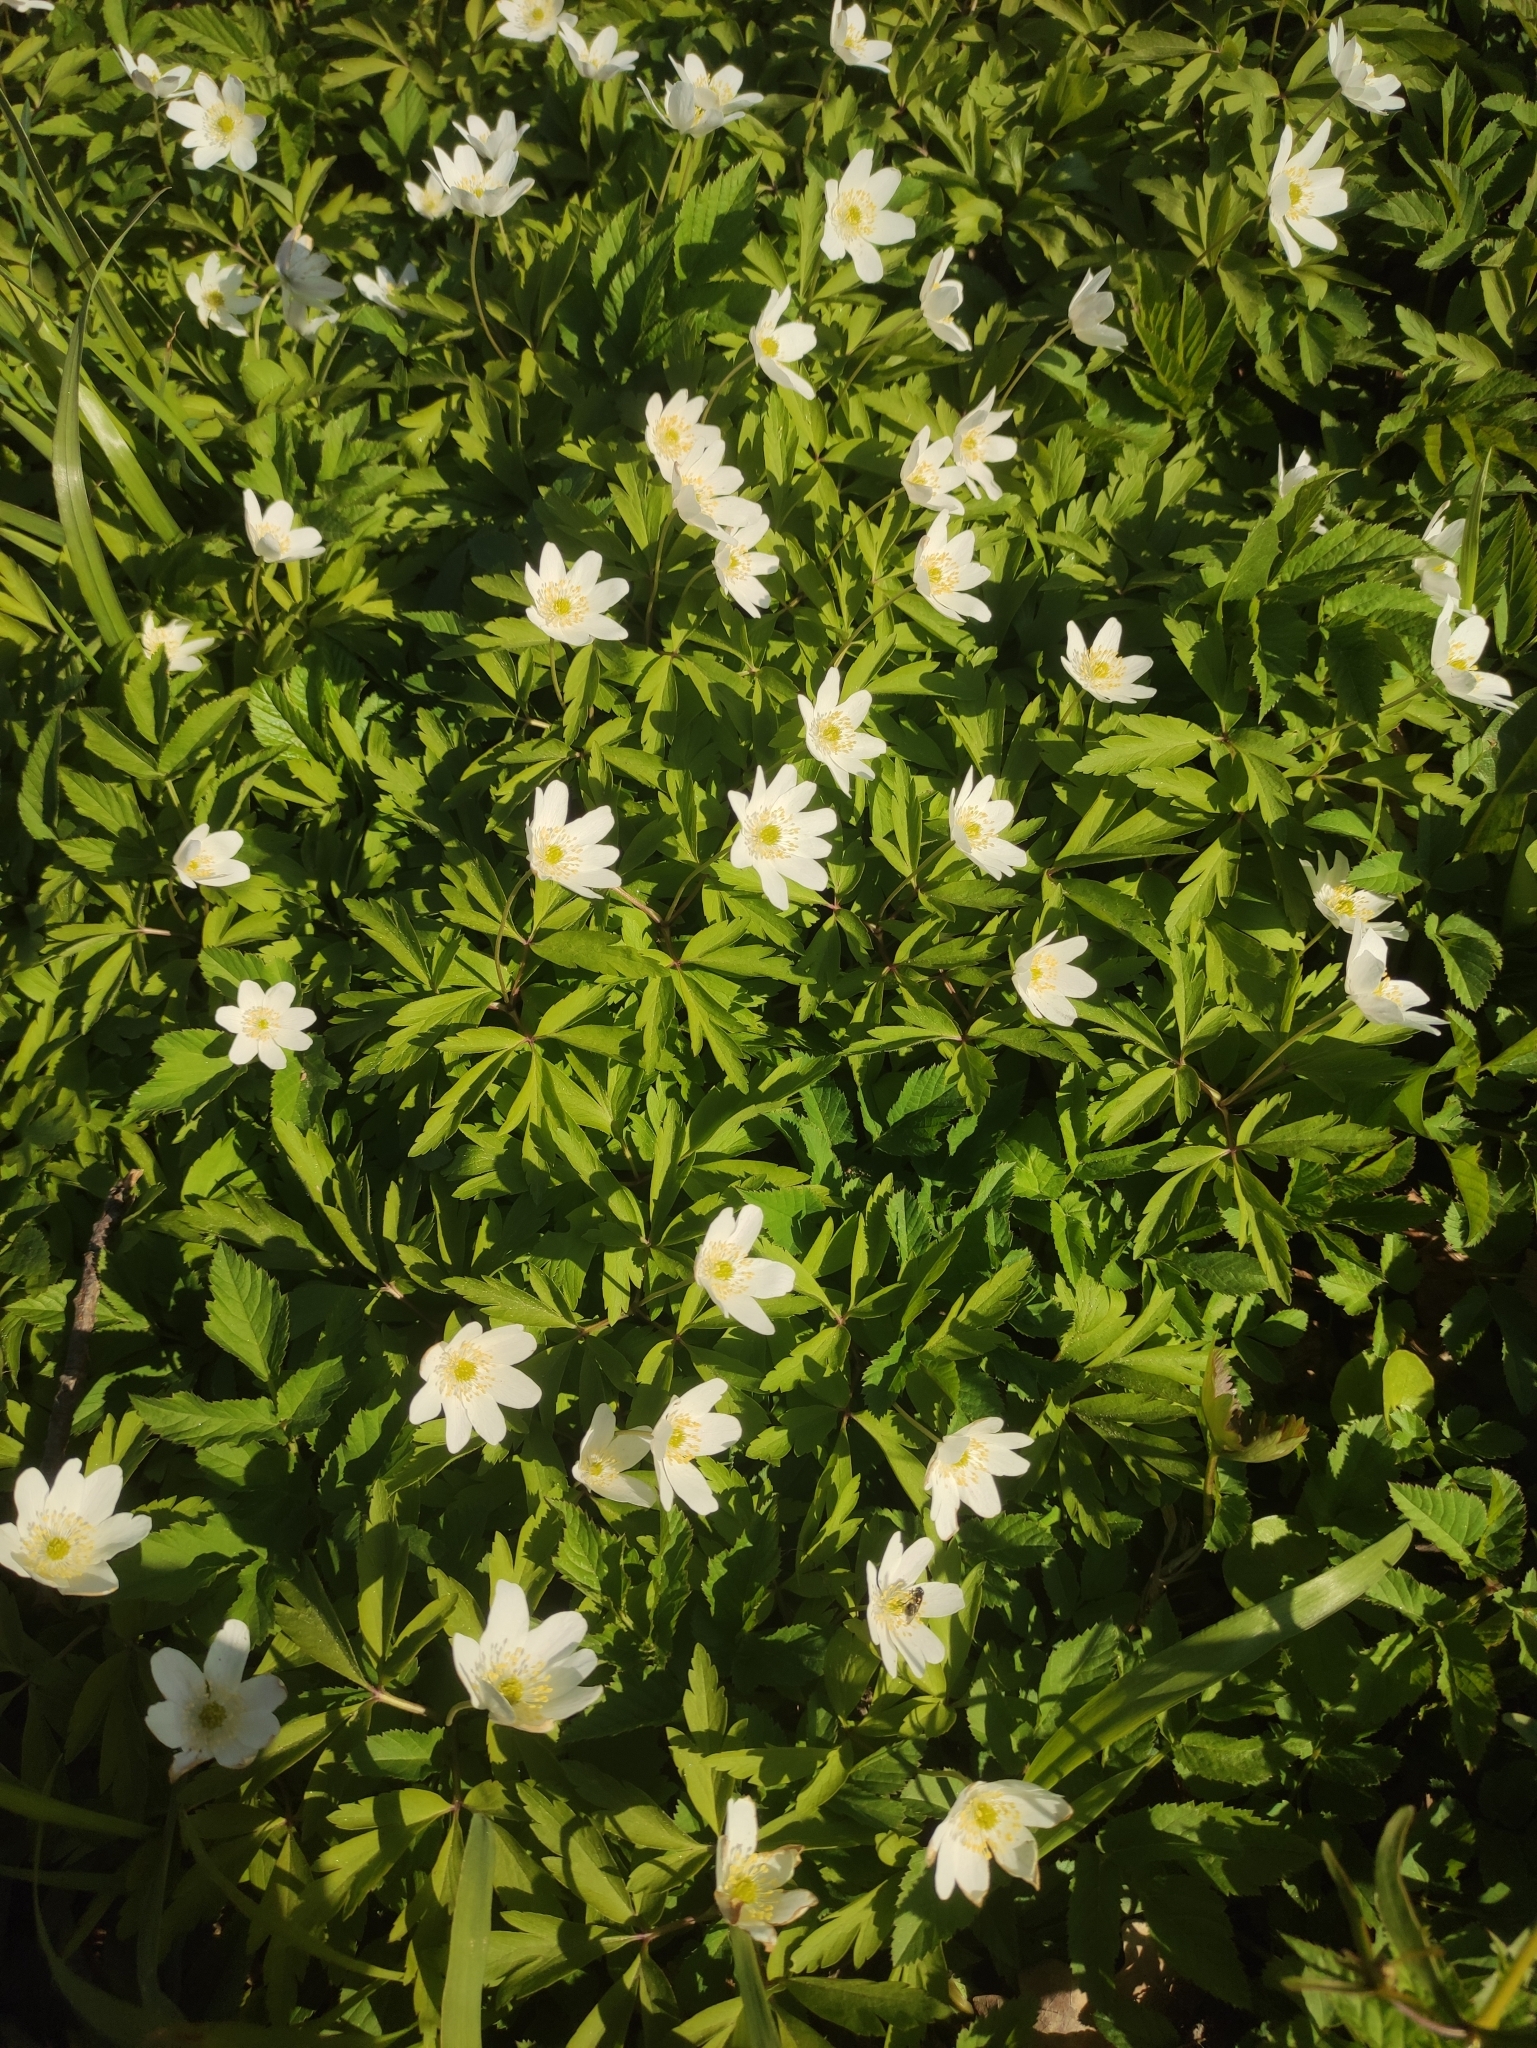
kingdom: Plantae
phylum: Tracheophyta
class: Magnoliopsida
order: Ranunculales
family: Ranunculaceae
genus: Anemone
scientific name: Anemone nemorosa
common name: Wood anemone
